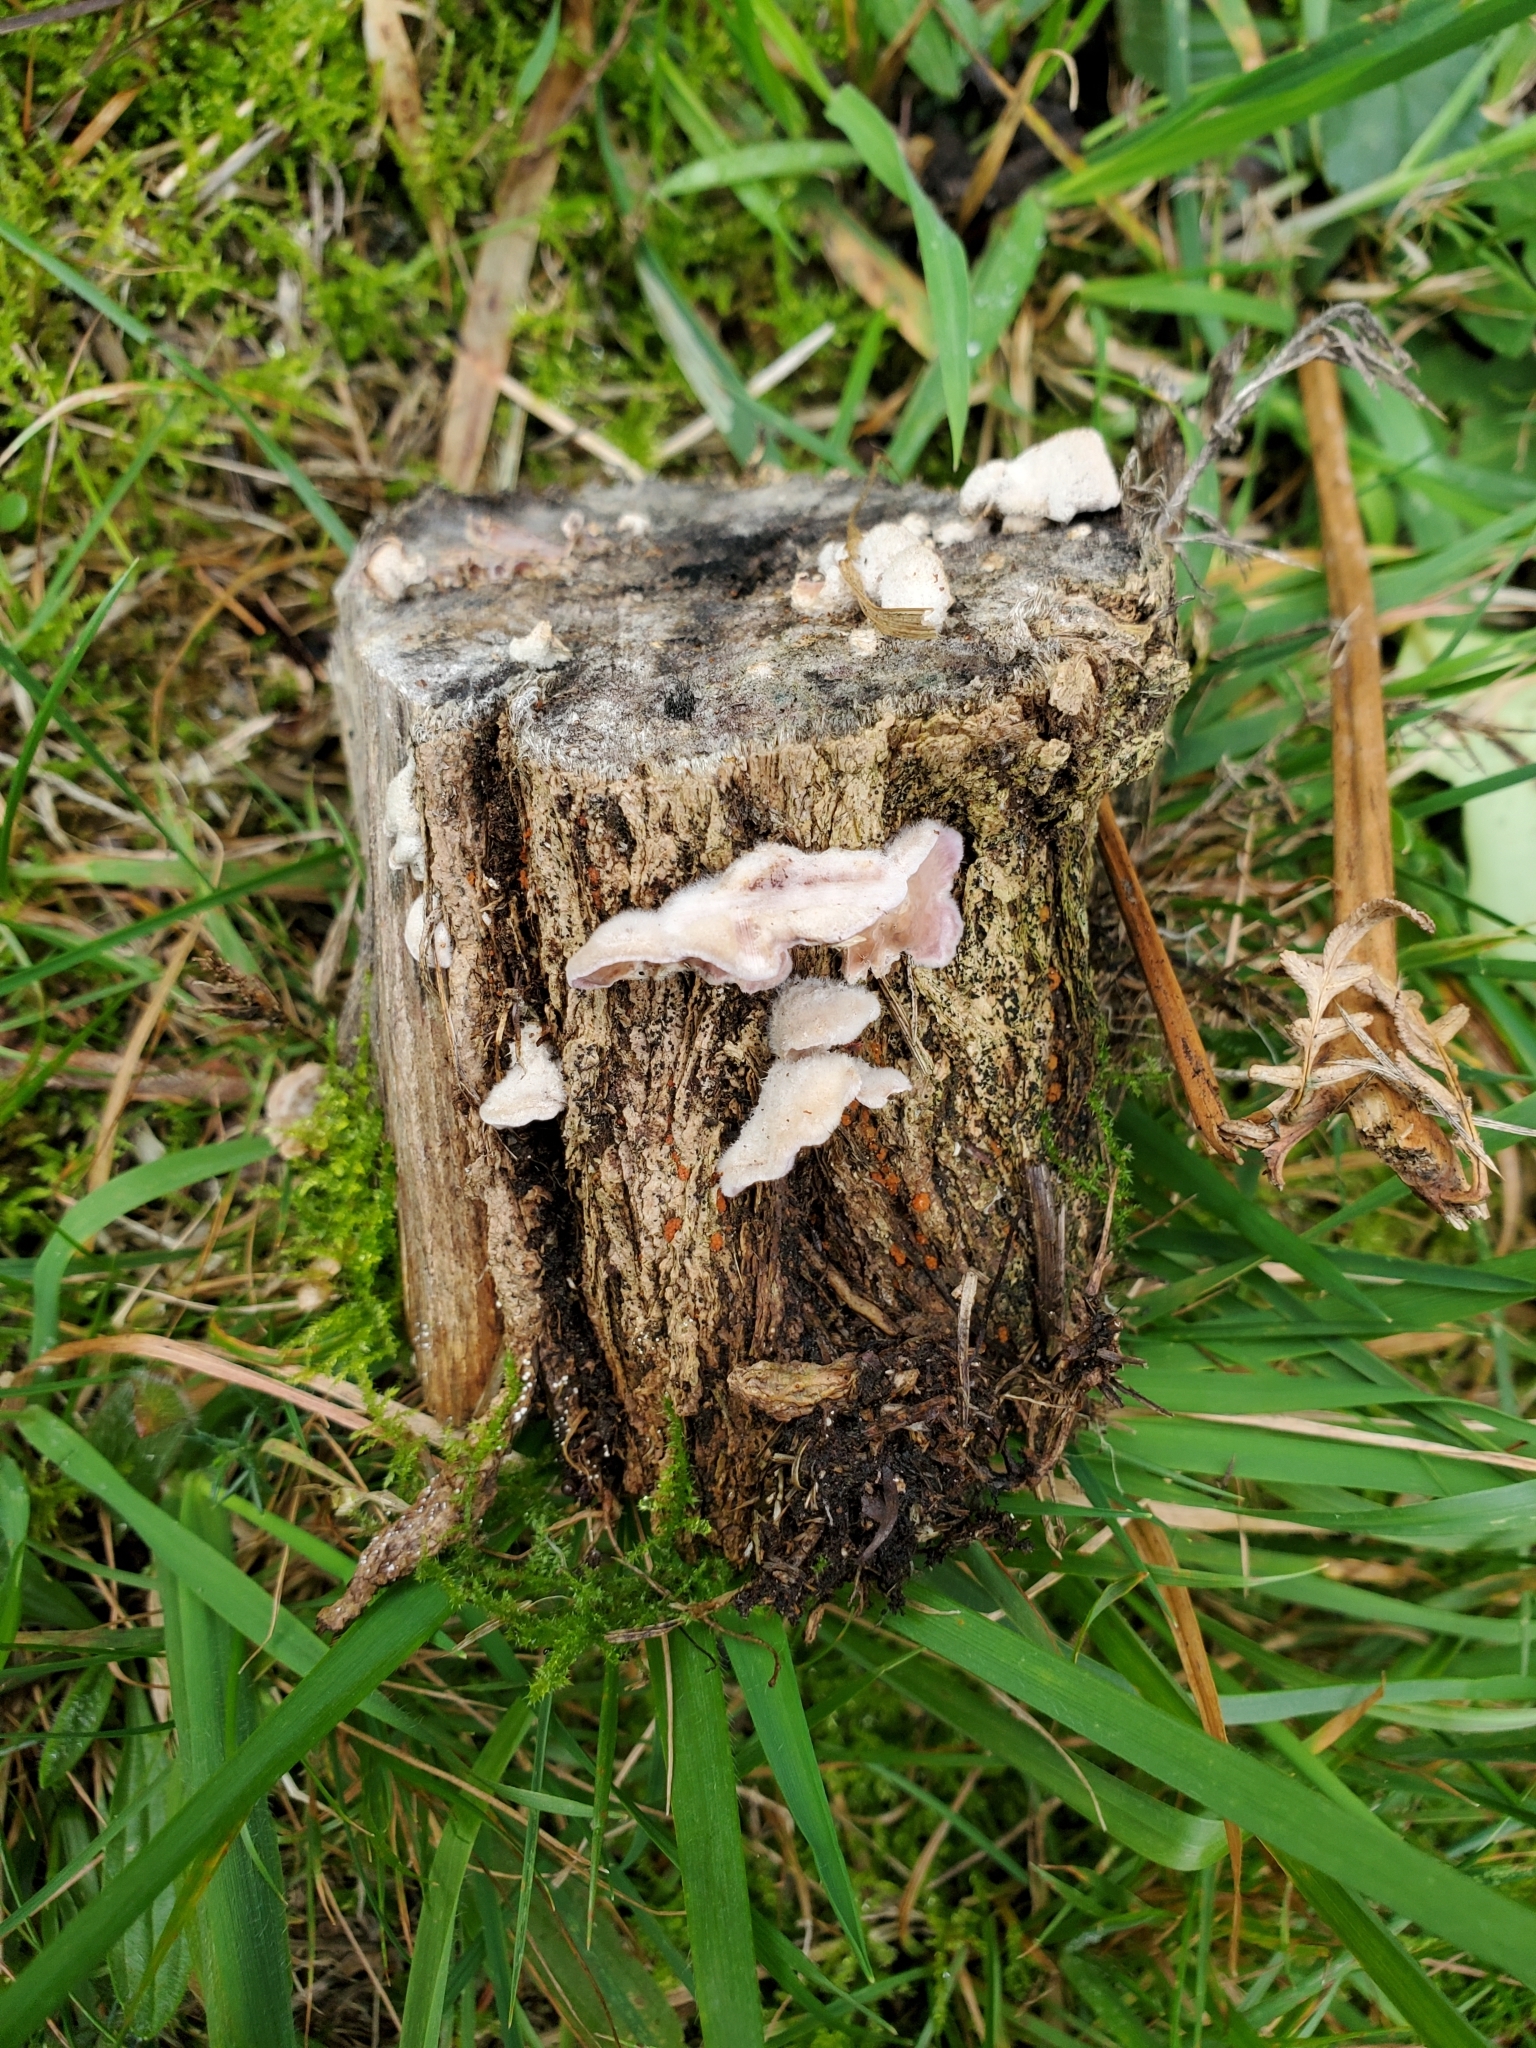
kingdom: Fungi
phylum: Basidiomycota
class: Agaricomycetes
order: Agaricales
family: Cyphellaceae
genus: Chondrostereum
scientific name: Chondrostereum purpureum
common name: Silver leaf disease
